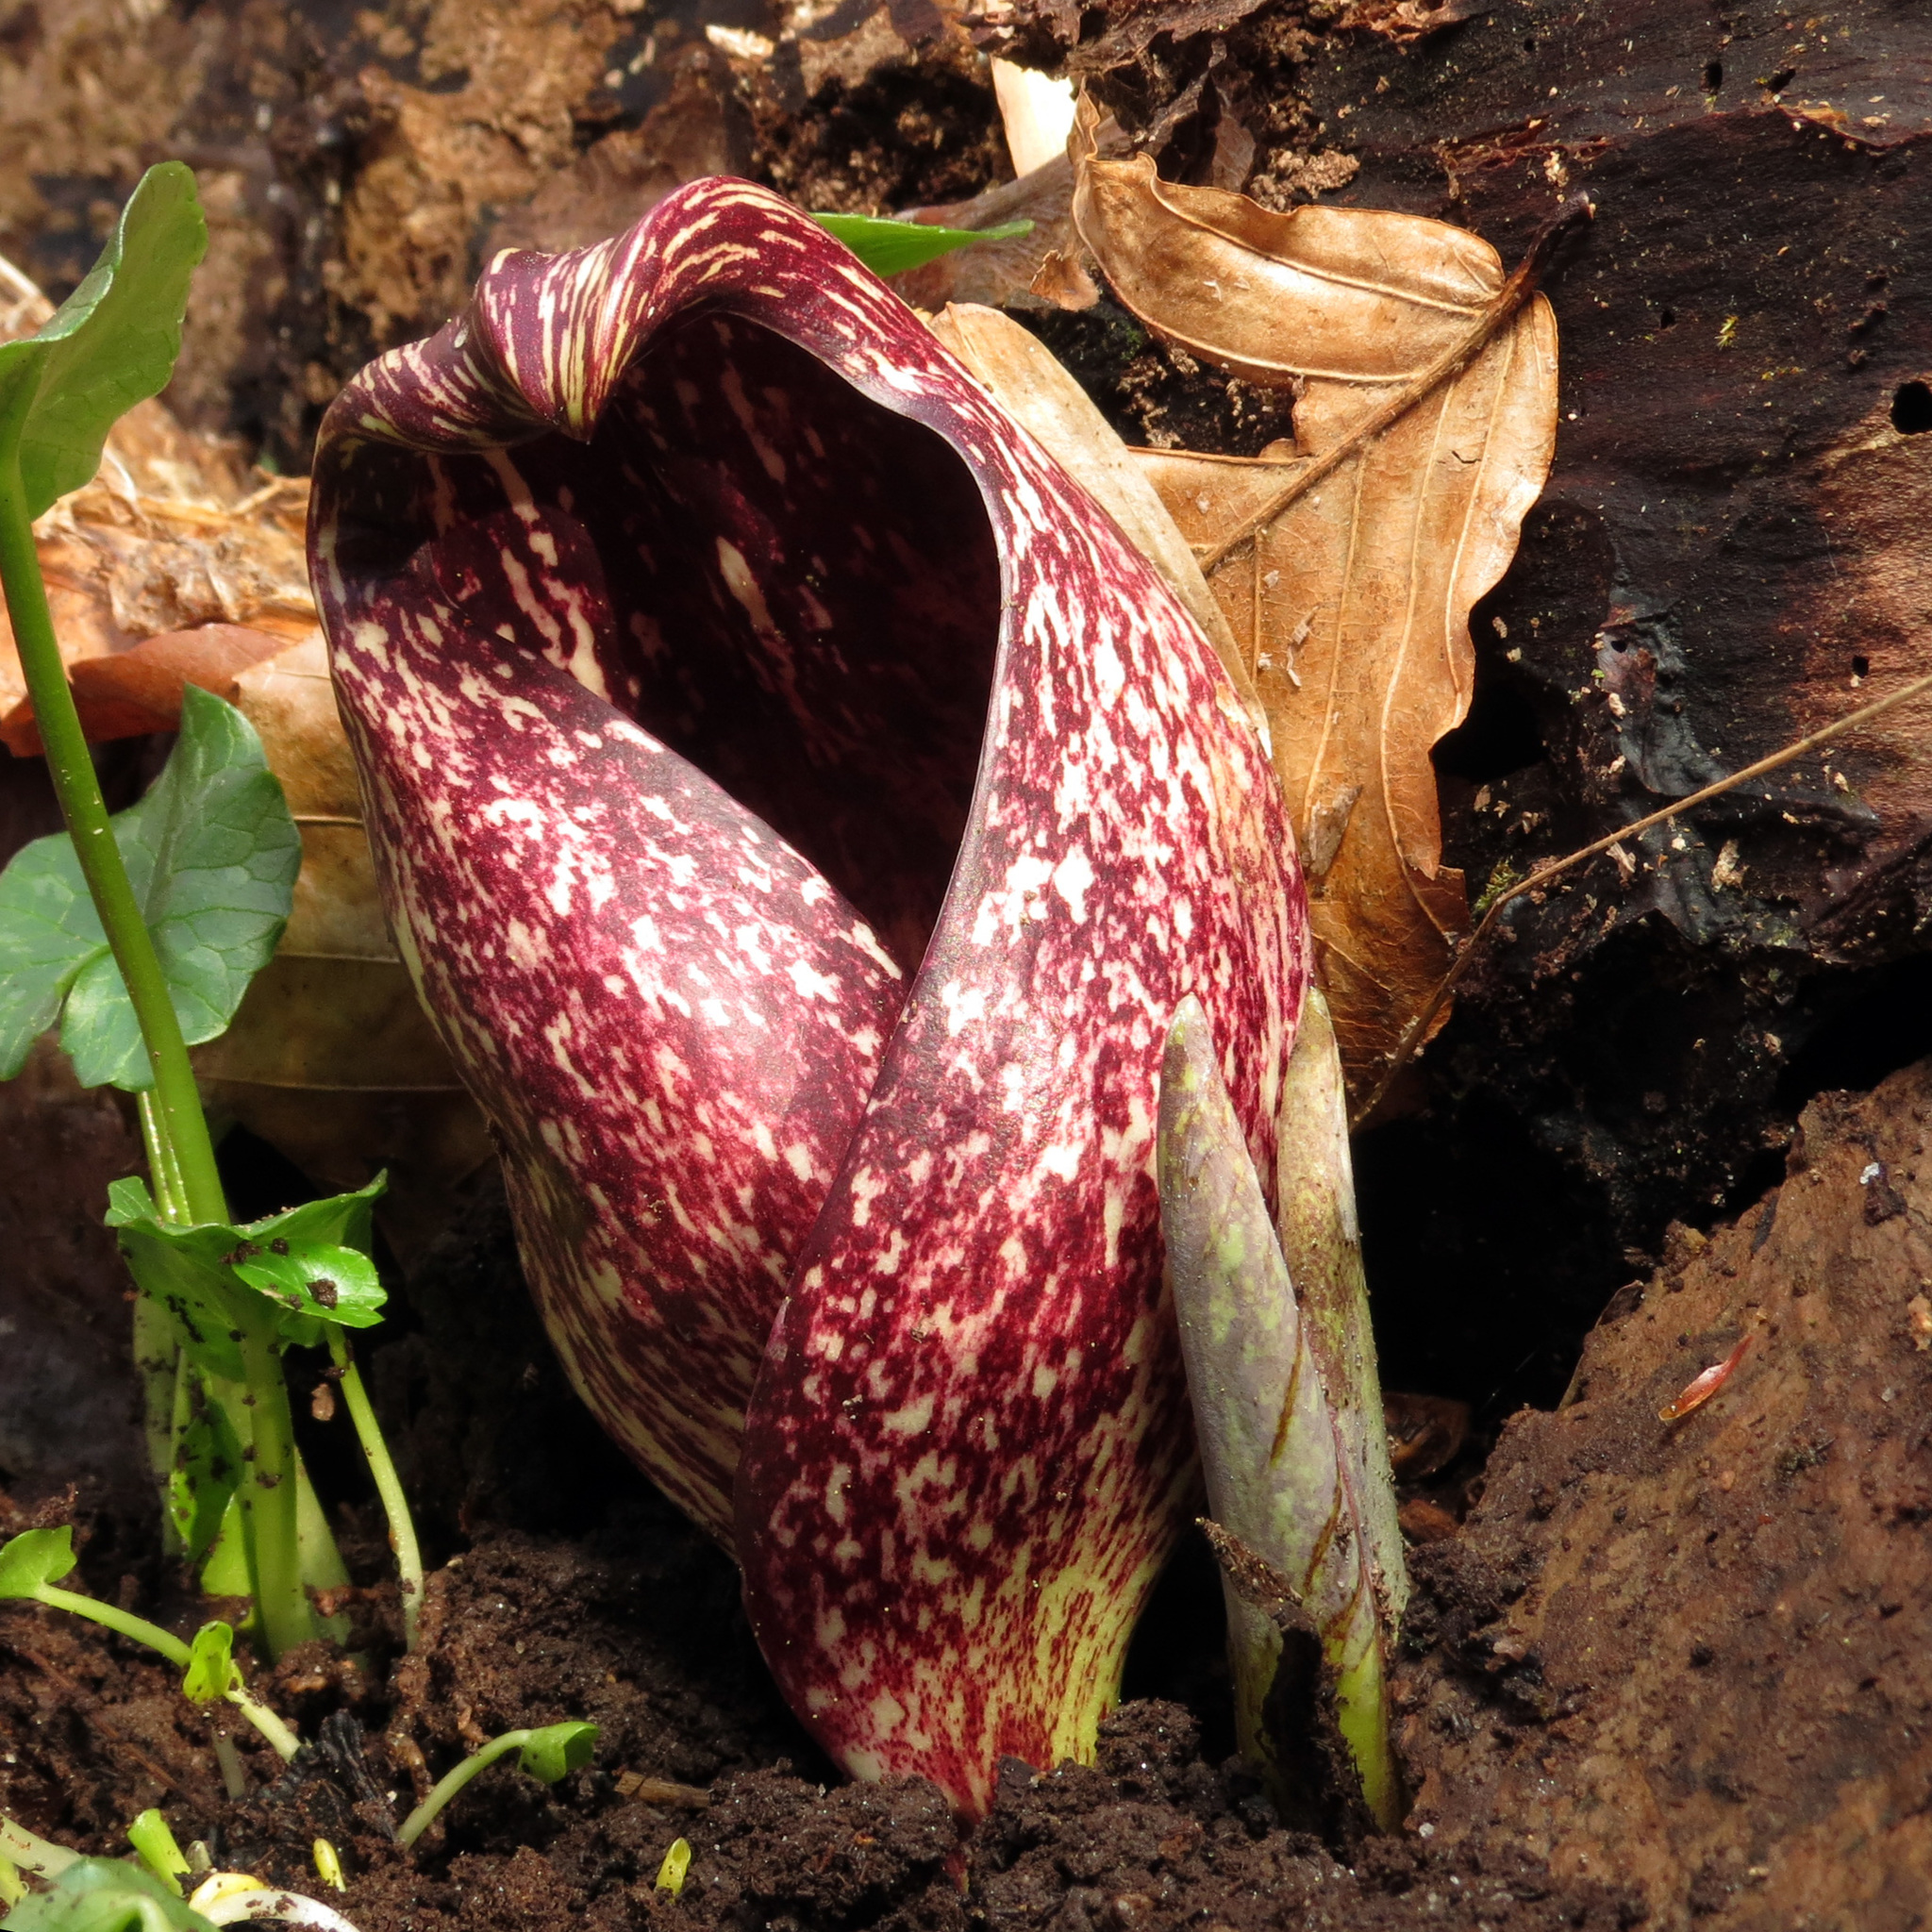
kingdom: Plantae
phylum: Tracheophyta
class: Liliopsida
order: Alismatales
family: Araceae
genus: Symplocarpus
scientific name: Symplocarpus foetidus
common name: Eastern skunk cabbage
